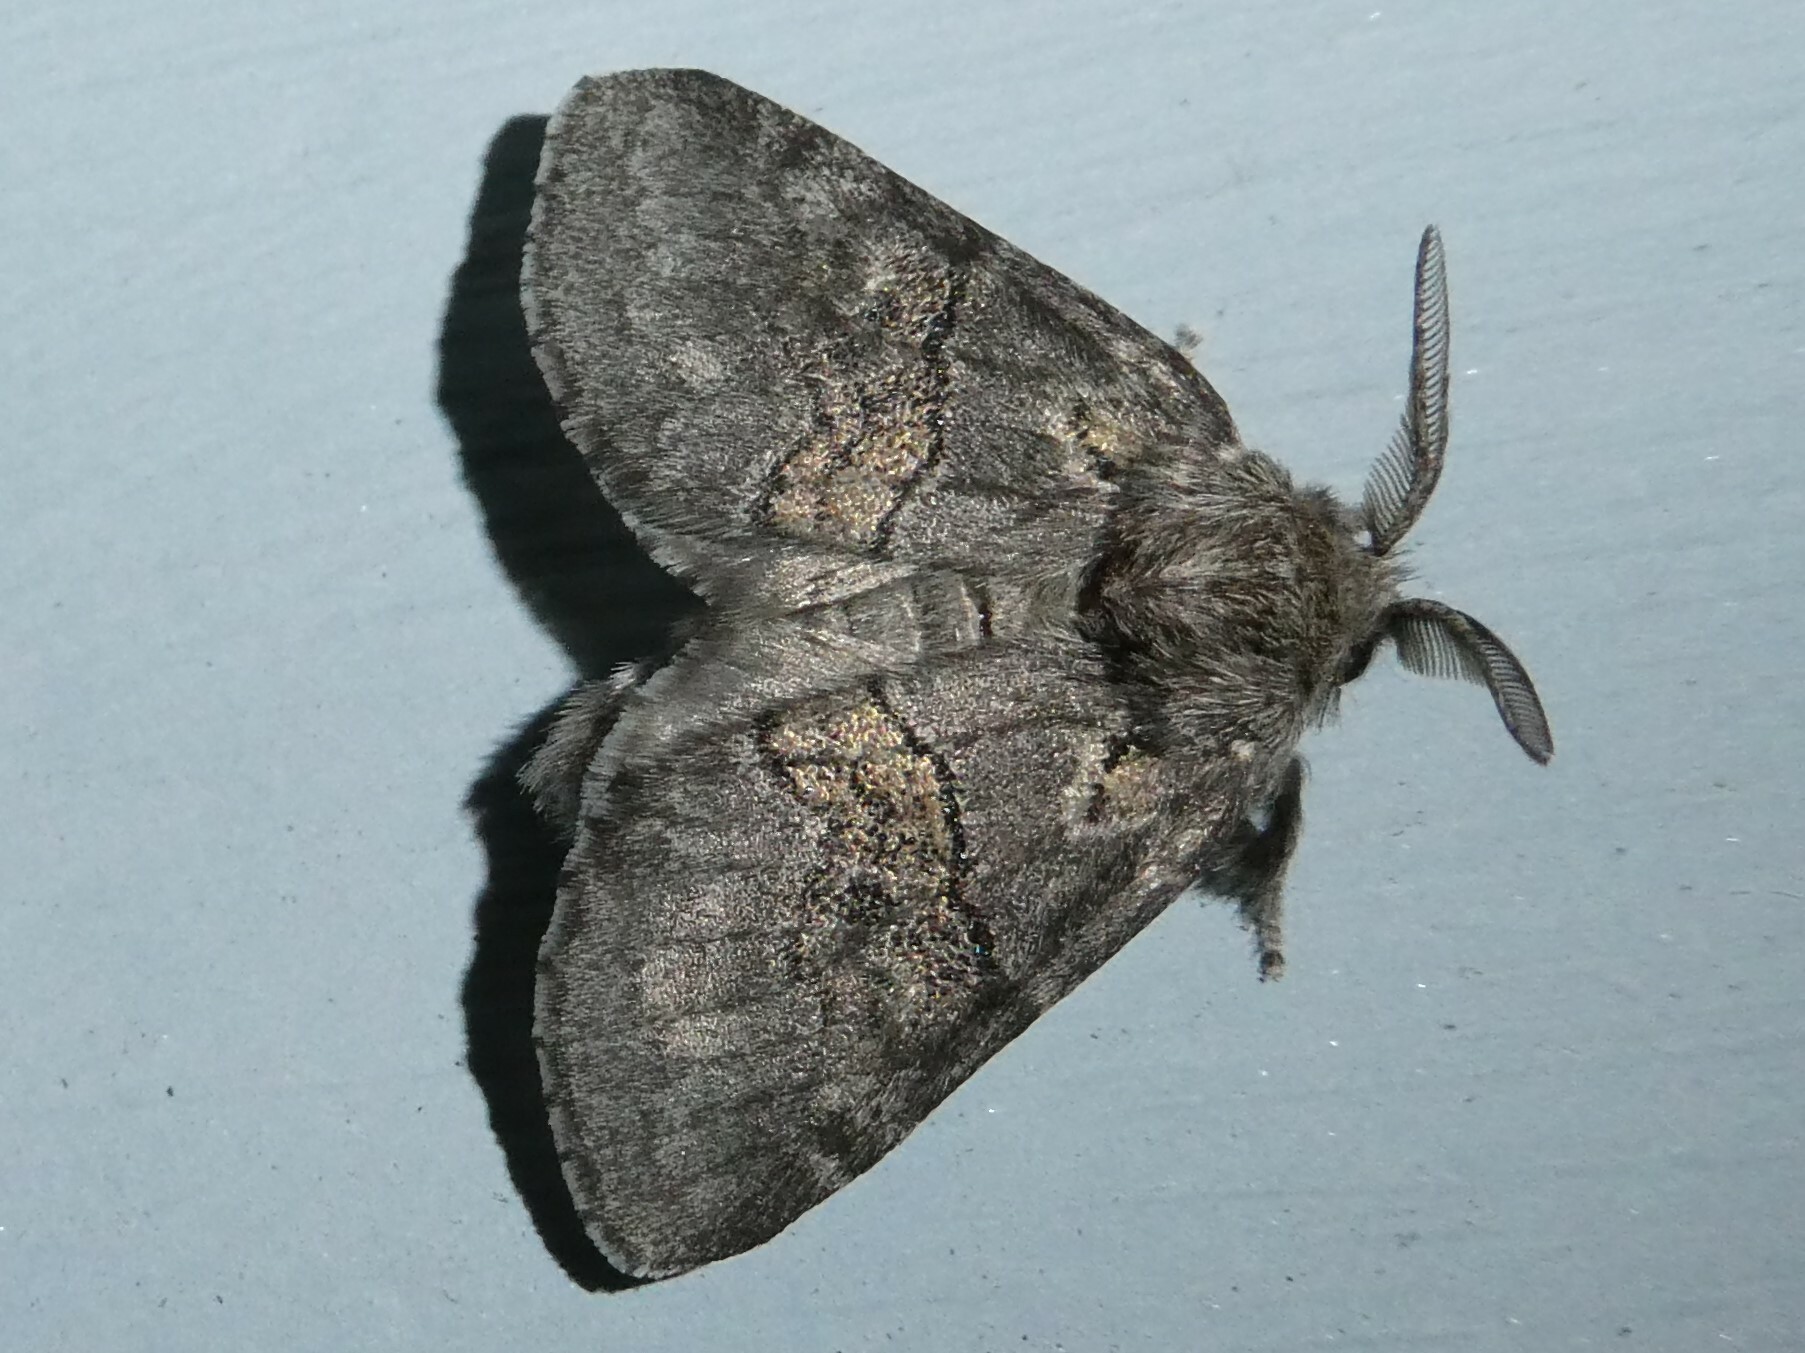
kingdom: Animalia
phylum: Arthropoda
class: Insecta
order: Lepidoptera
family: Notodontidae
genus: Gluphisia
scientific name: Gluphisia septentrionis
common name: Common gluphisia
